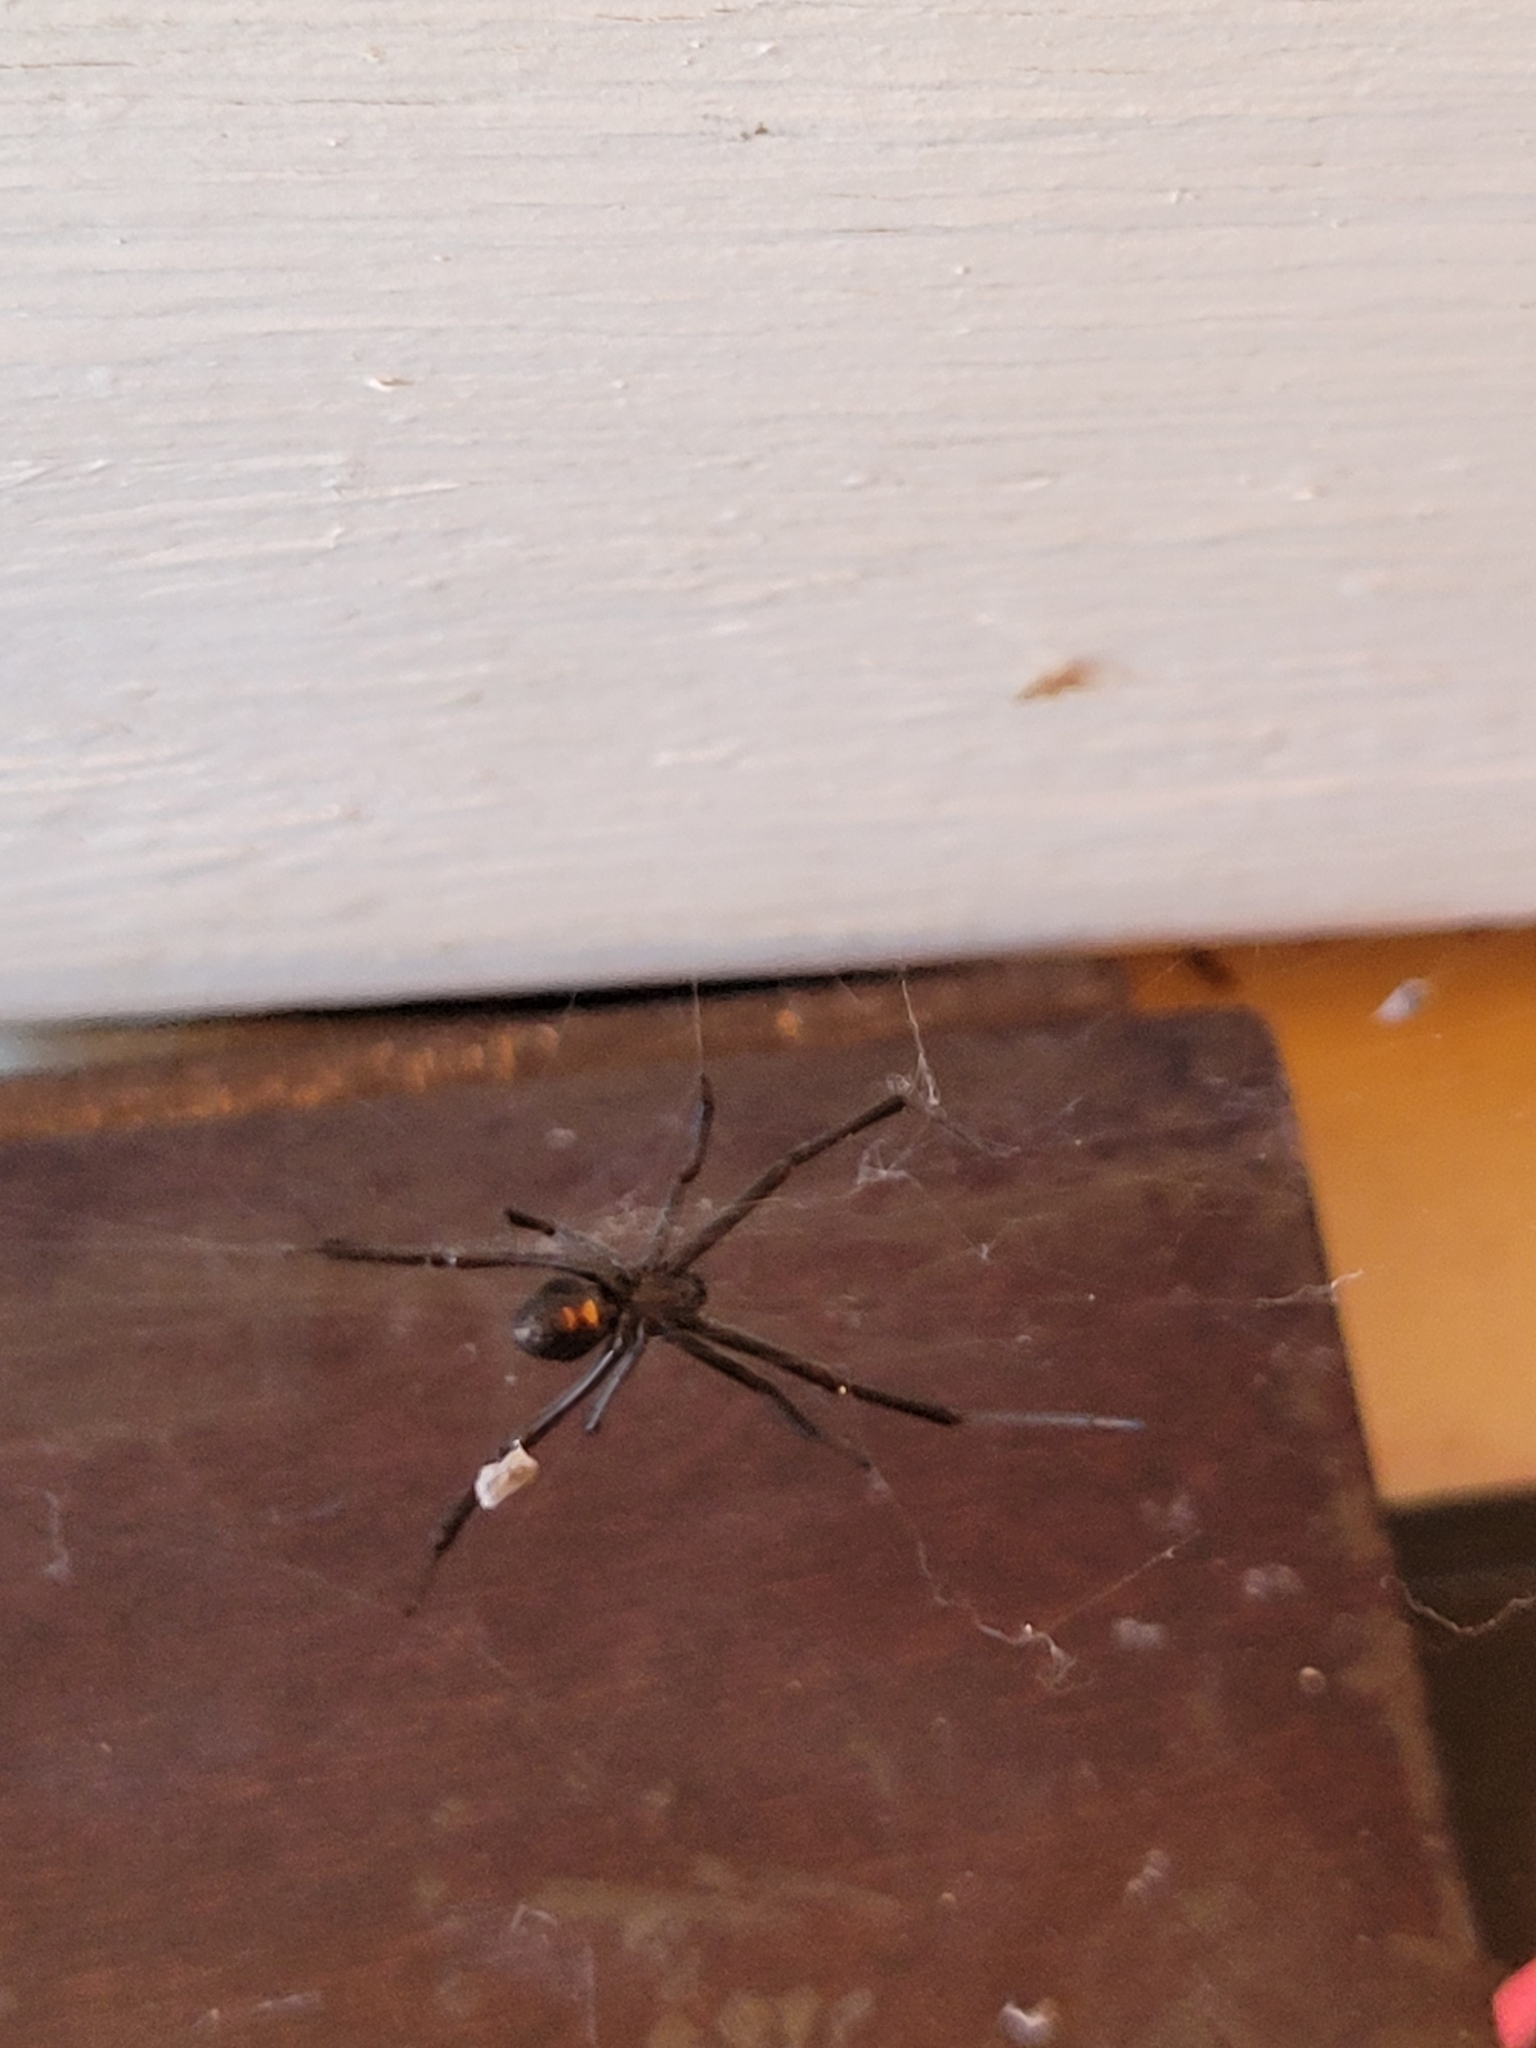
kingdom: Animalia
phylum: Arthropoda
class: Arachnida
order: Araneae
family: Theridiidae
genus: Latrodectus
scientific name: Latrodectus hesperus
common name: Western black widow
